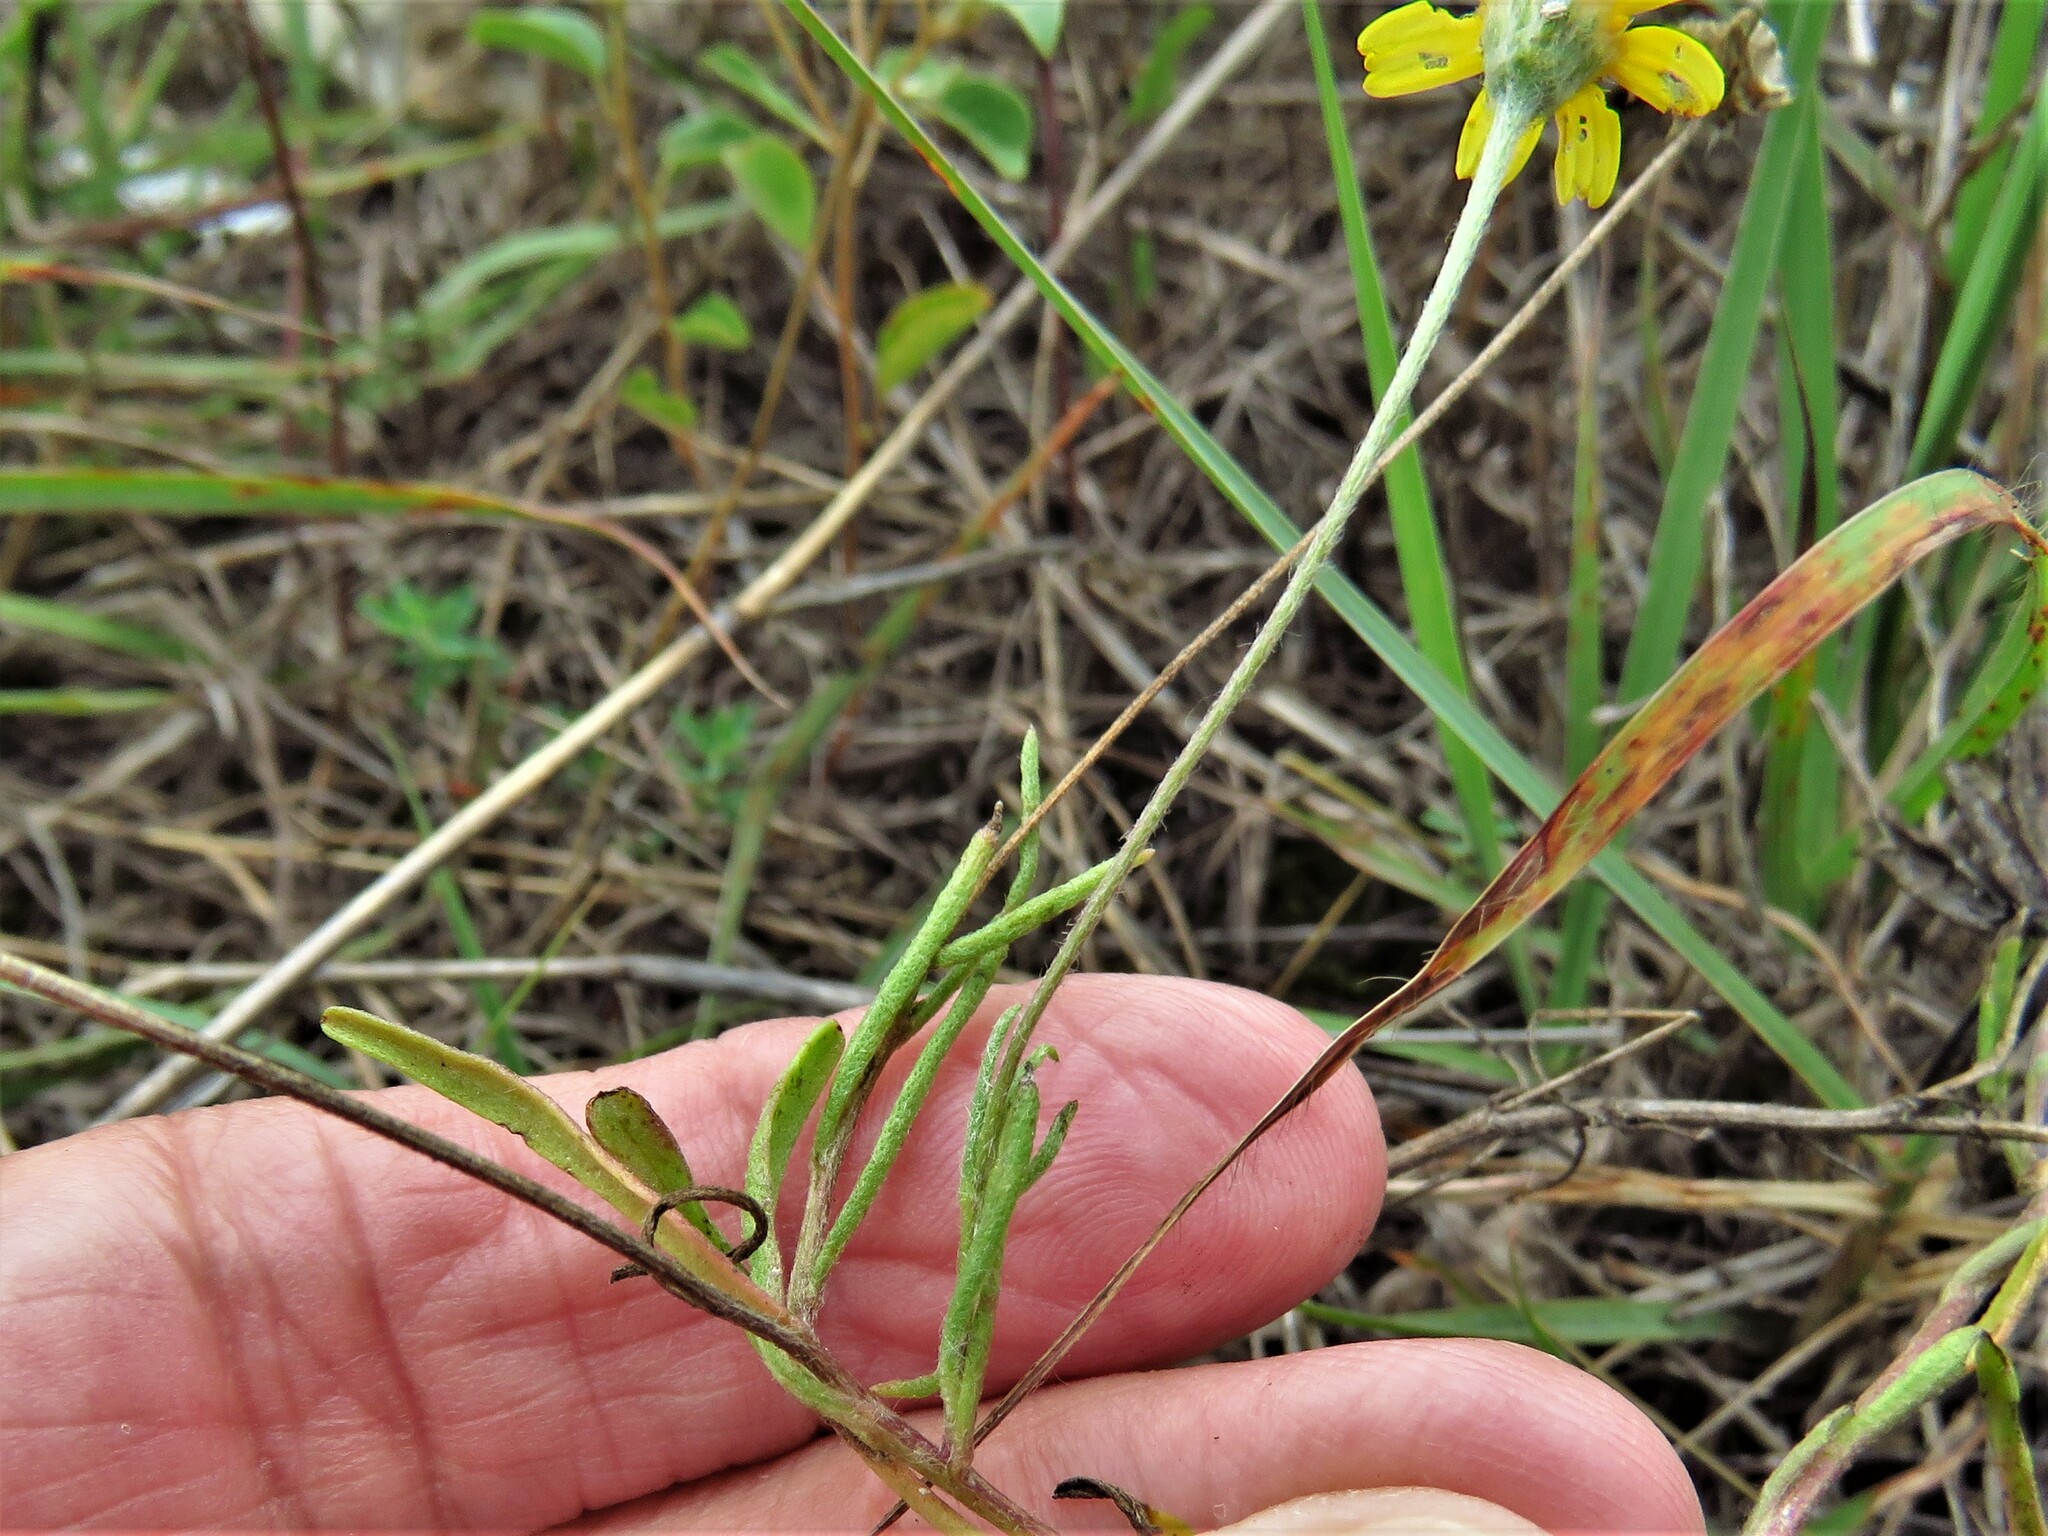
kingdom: Plantae
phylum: Tracheophyta
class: Magnoliopsida
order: Asterales
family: Asteraceae
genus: Tetraneuris
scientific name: Tetraneuris scaposa
